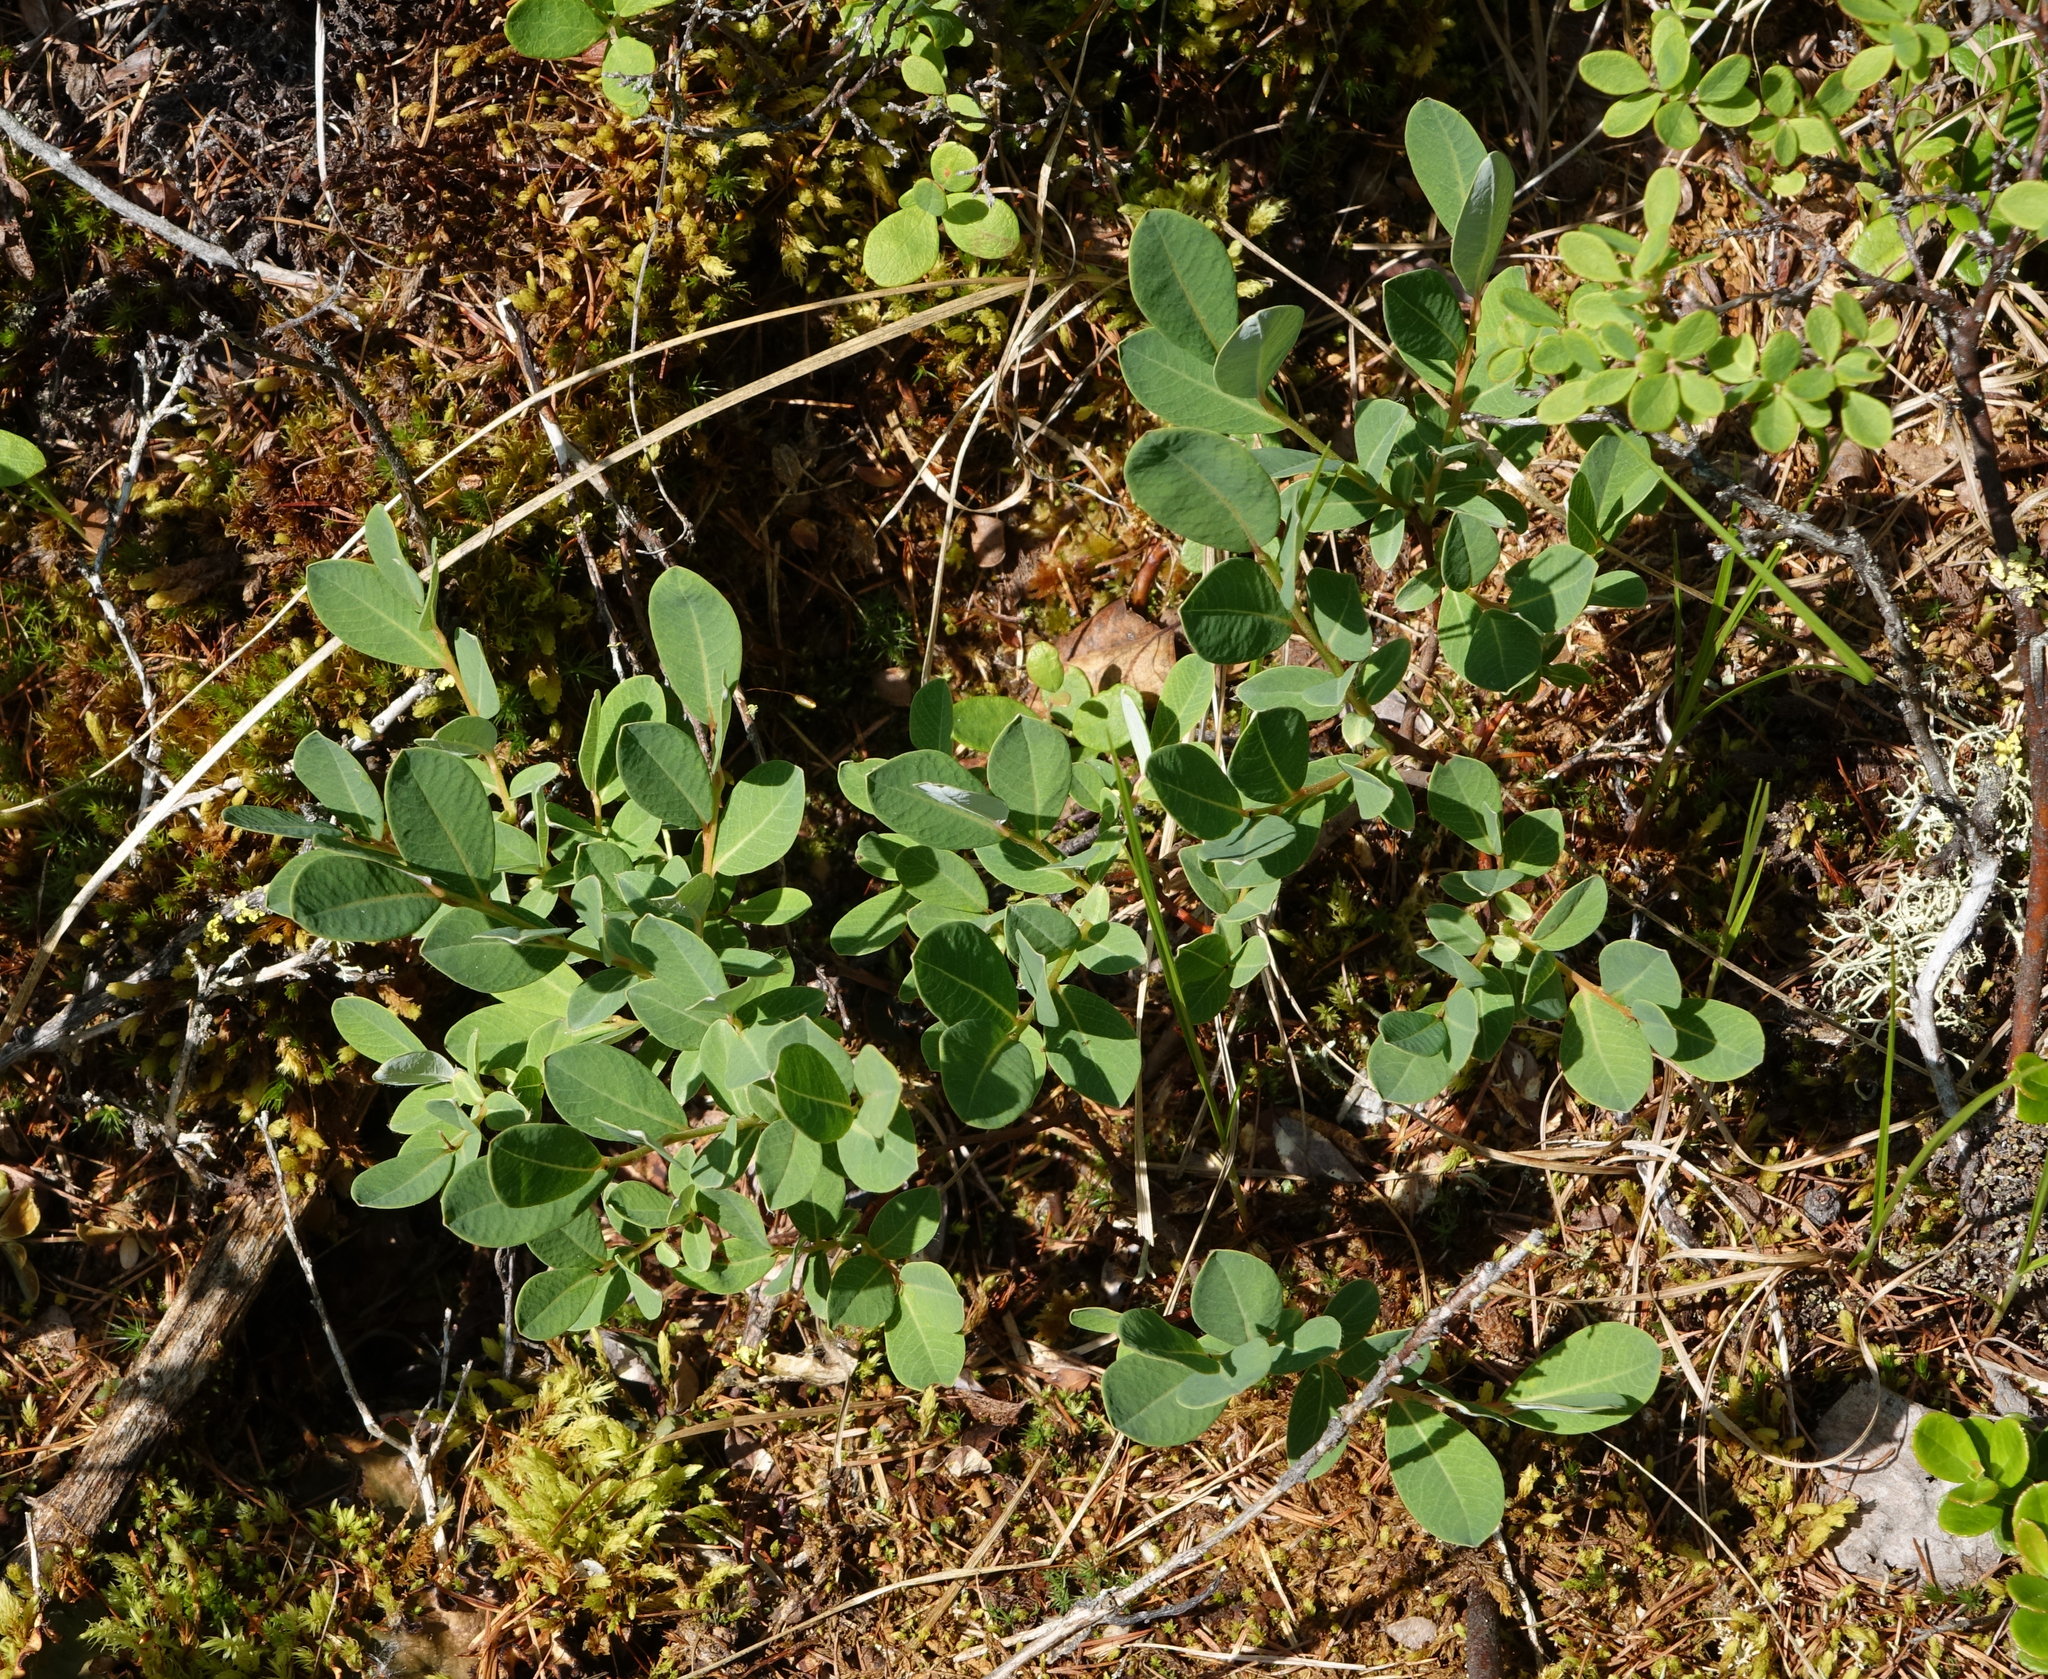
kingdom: Plantae
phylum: Tracheophyta
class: Magnoliopsida
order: Malpighiales
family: Salicaceae
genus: Salix
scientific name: Salix myrtilloides
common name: Myrtle-leaved willow
